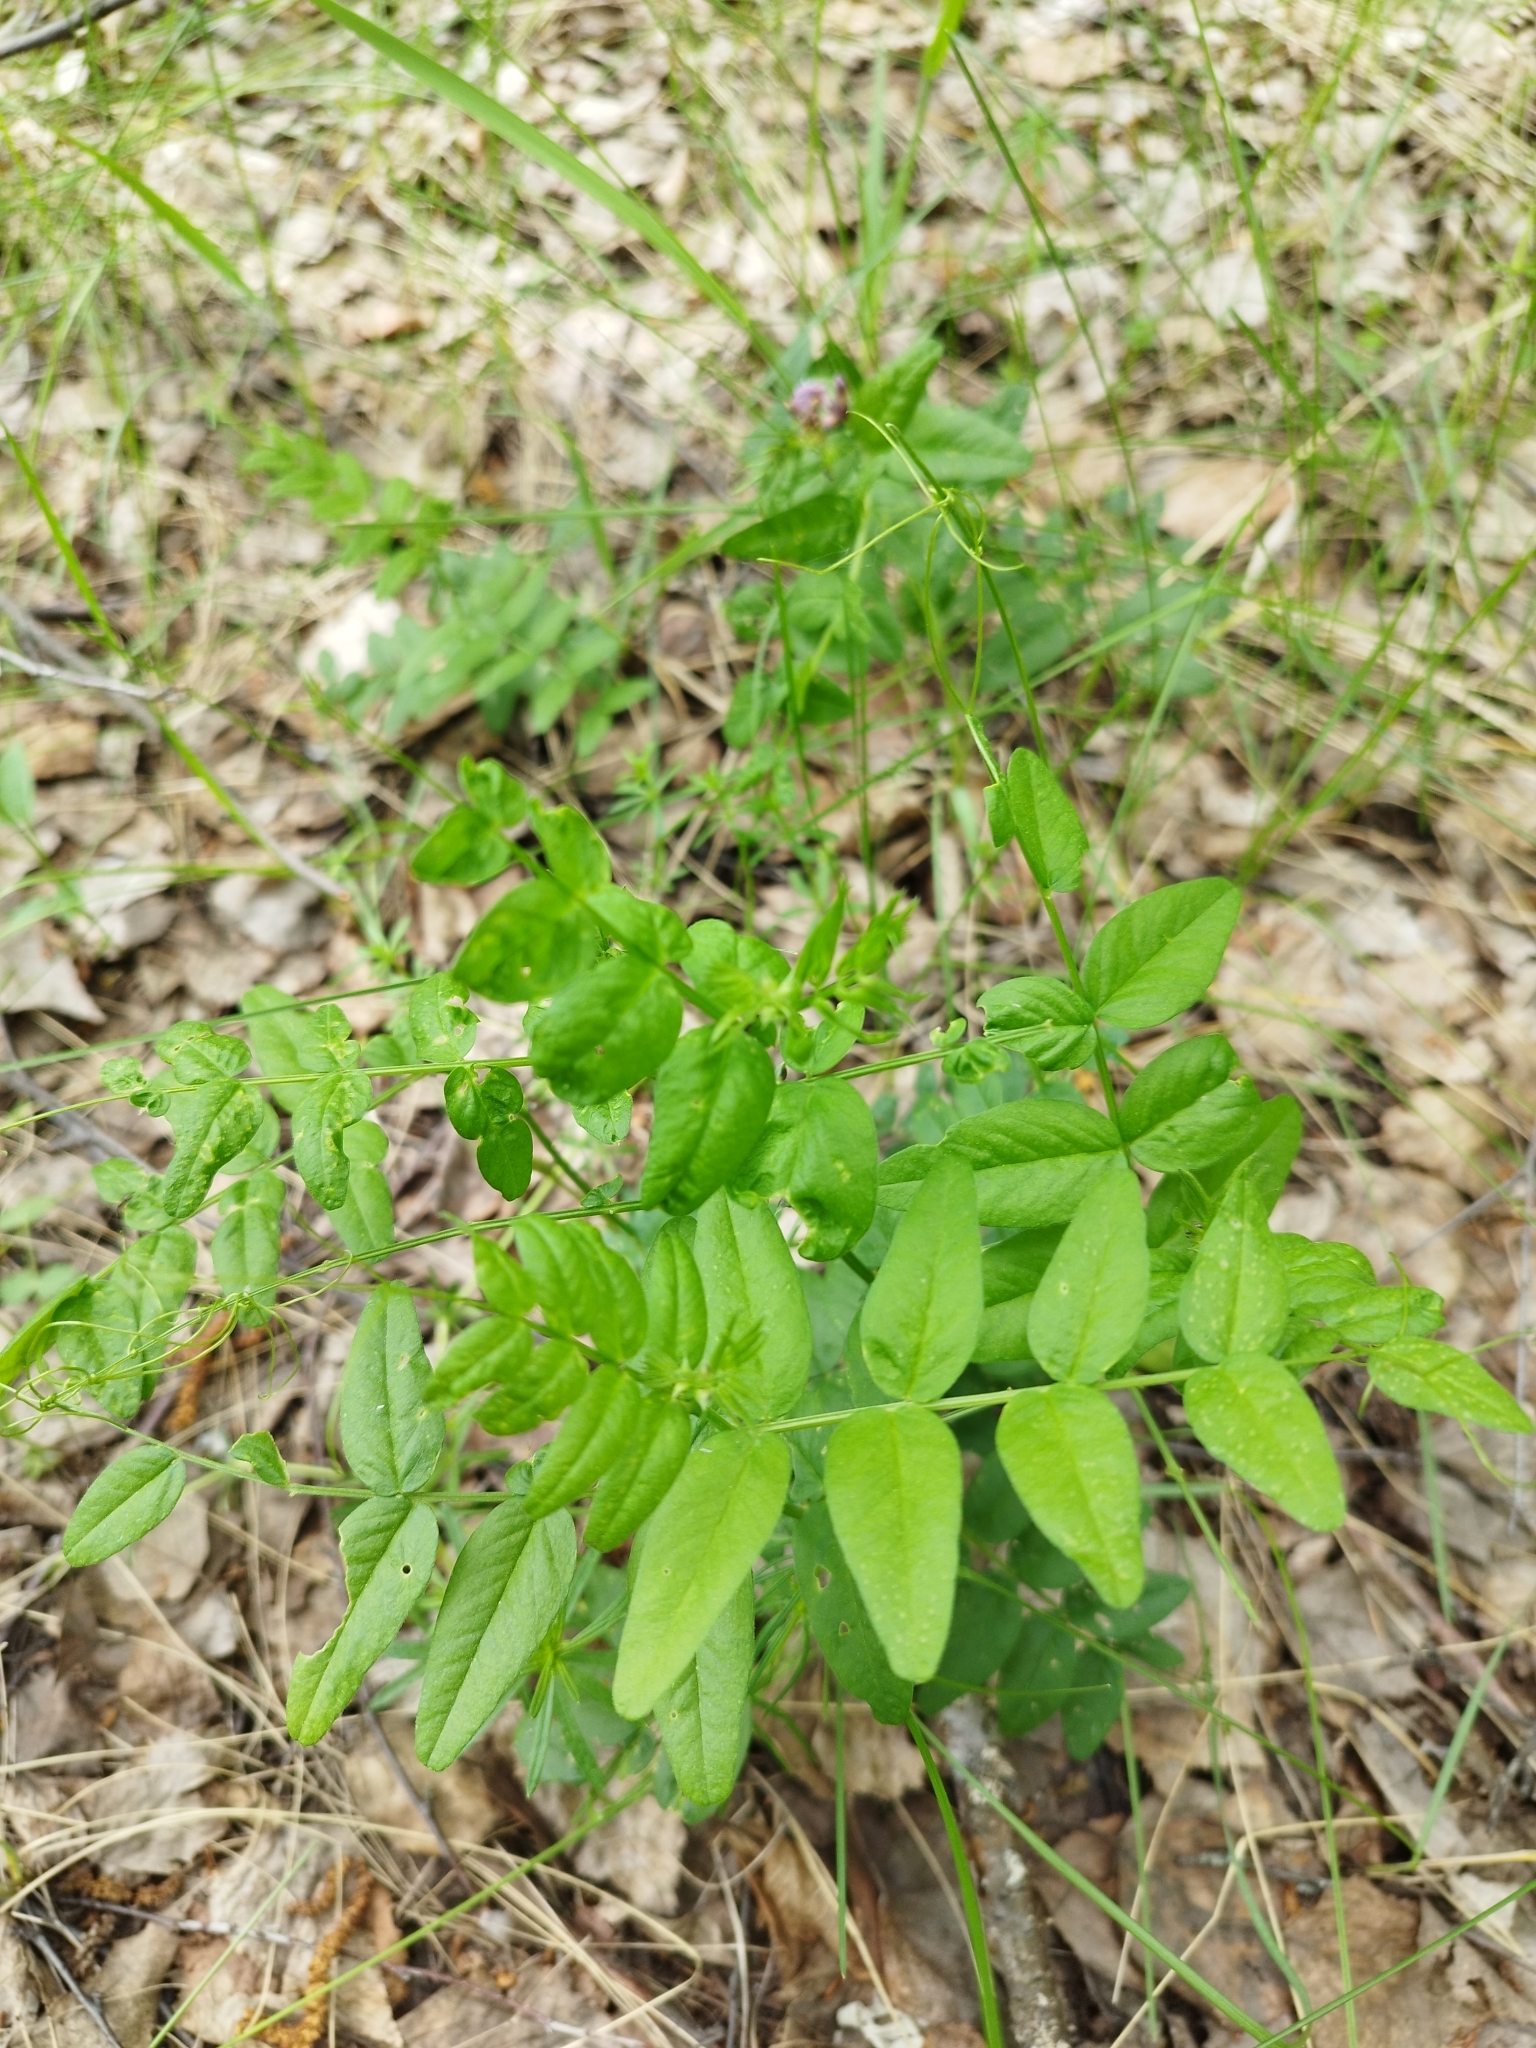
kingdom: Plantae
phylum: Tracheophyta
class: Magnoliopsida
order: Fabales
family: Fabaceae
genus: Vicia
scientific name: Vicia sylvatica
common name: Wood vetch
